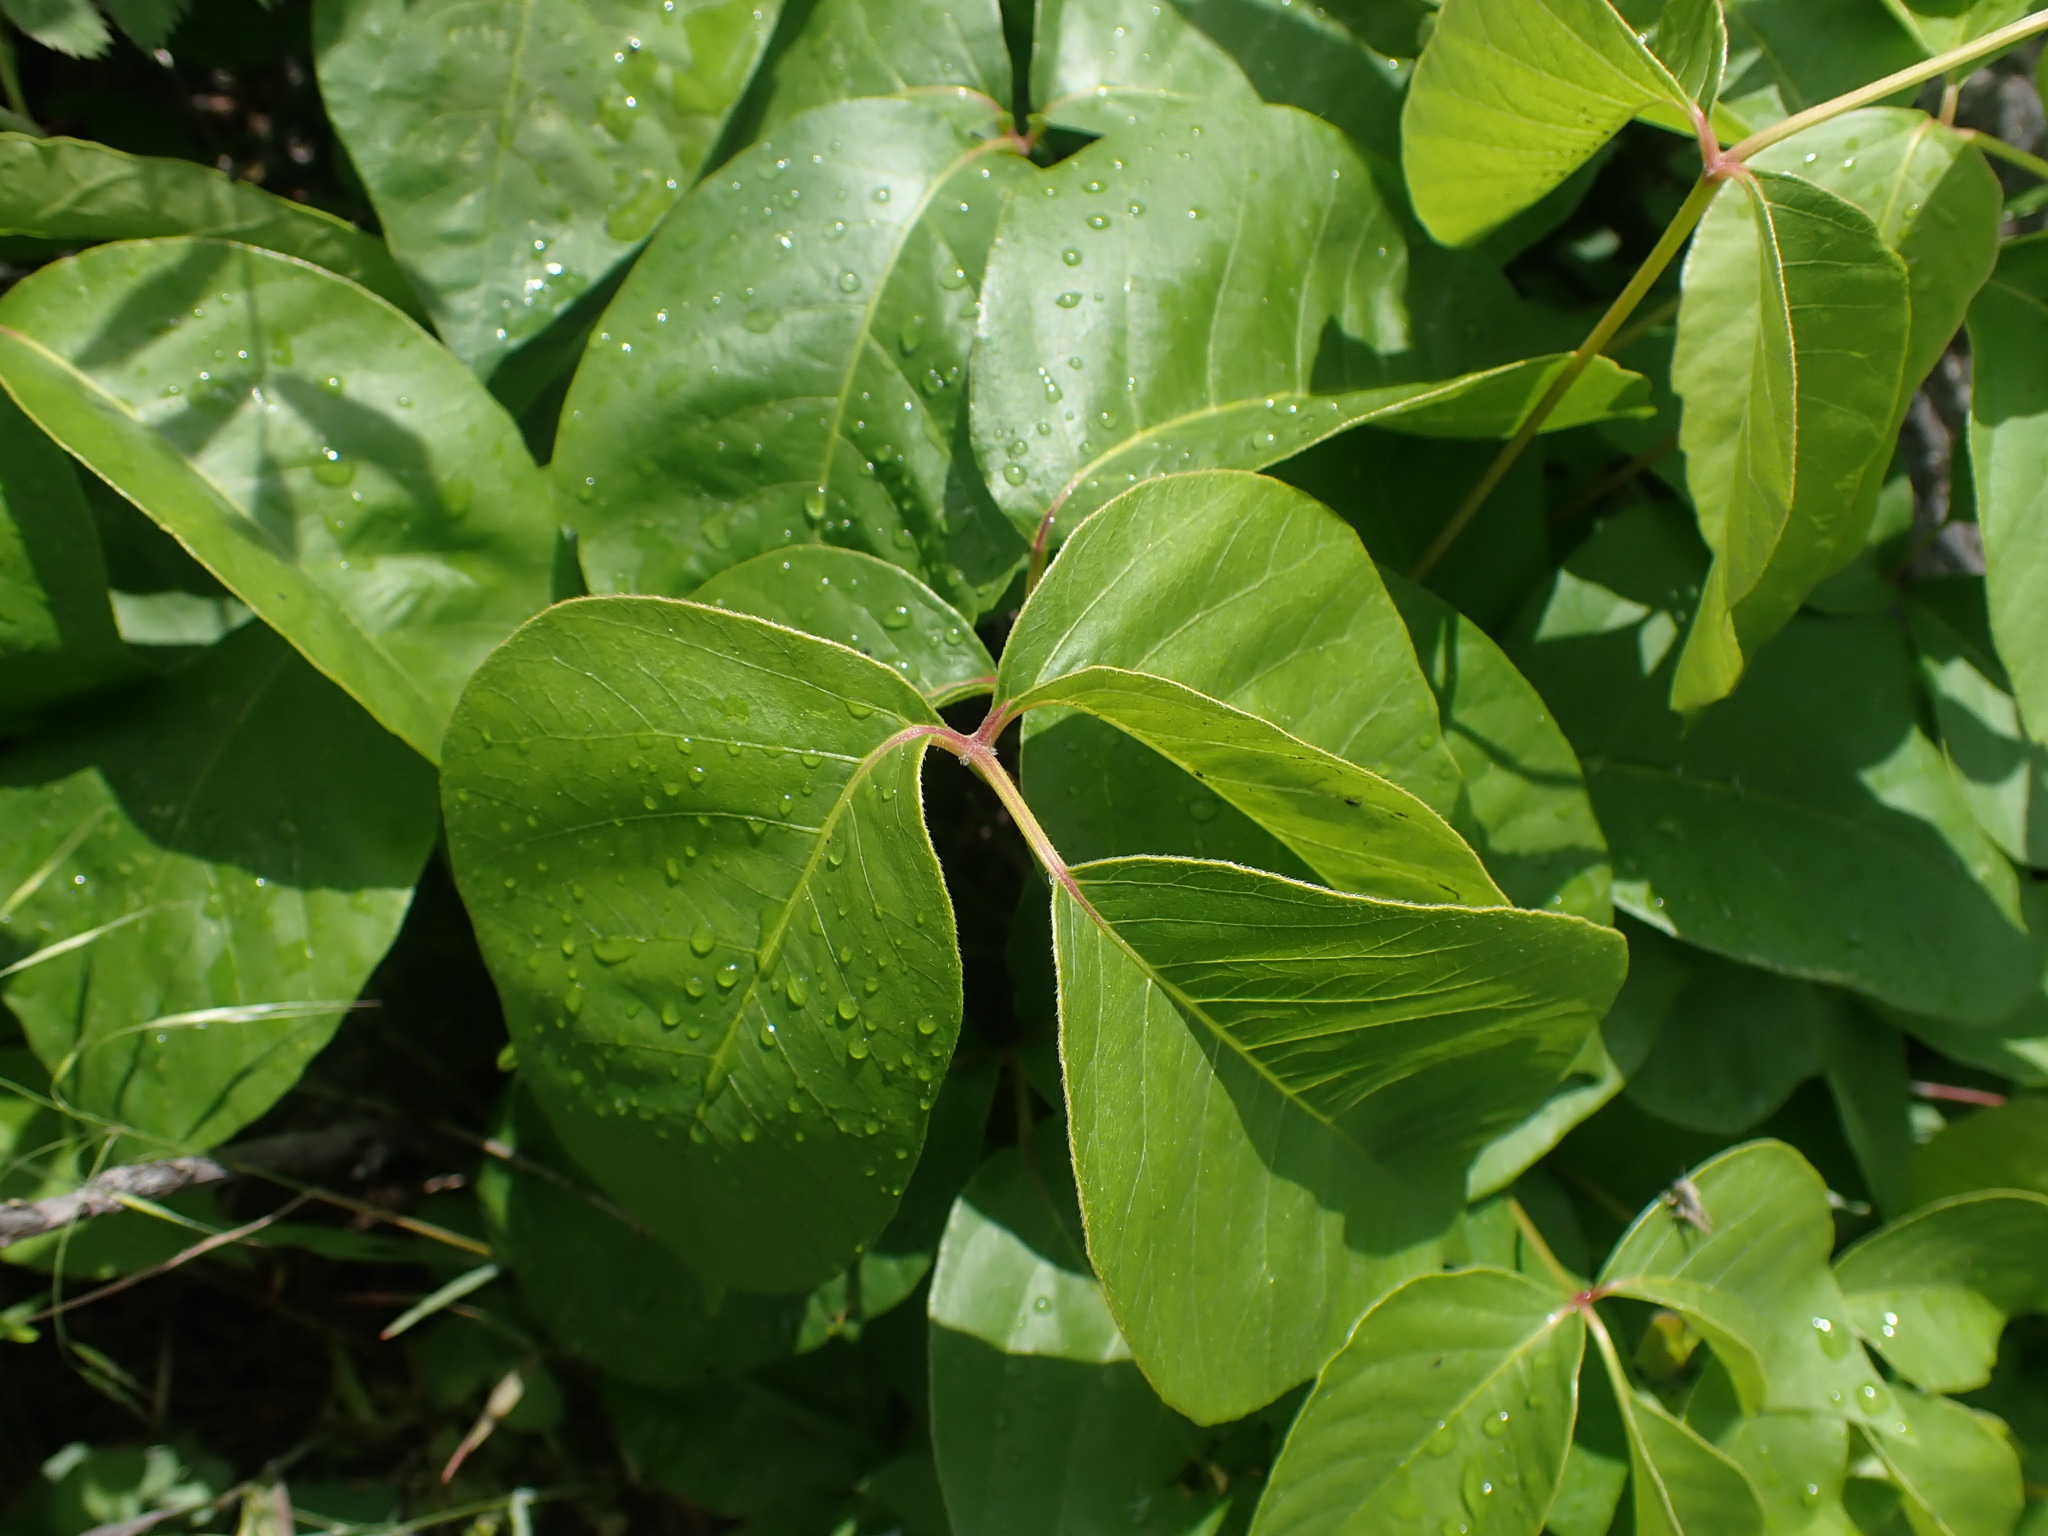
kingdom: Plantae
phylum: Tracheophyta
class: Magnoliopsida
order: Sapindales
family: Anacardiaceae
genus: Toxicodendron
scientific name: Toxicodendron rydbergii
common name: Rydberg's poison-ivy
